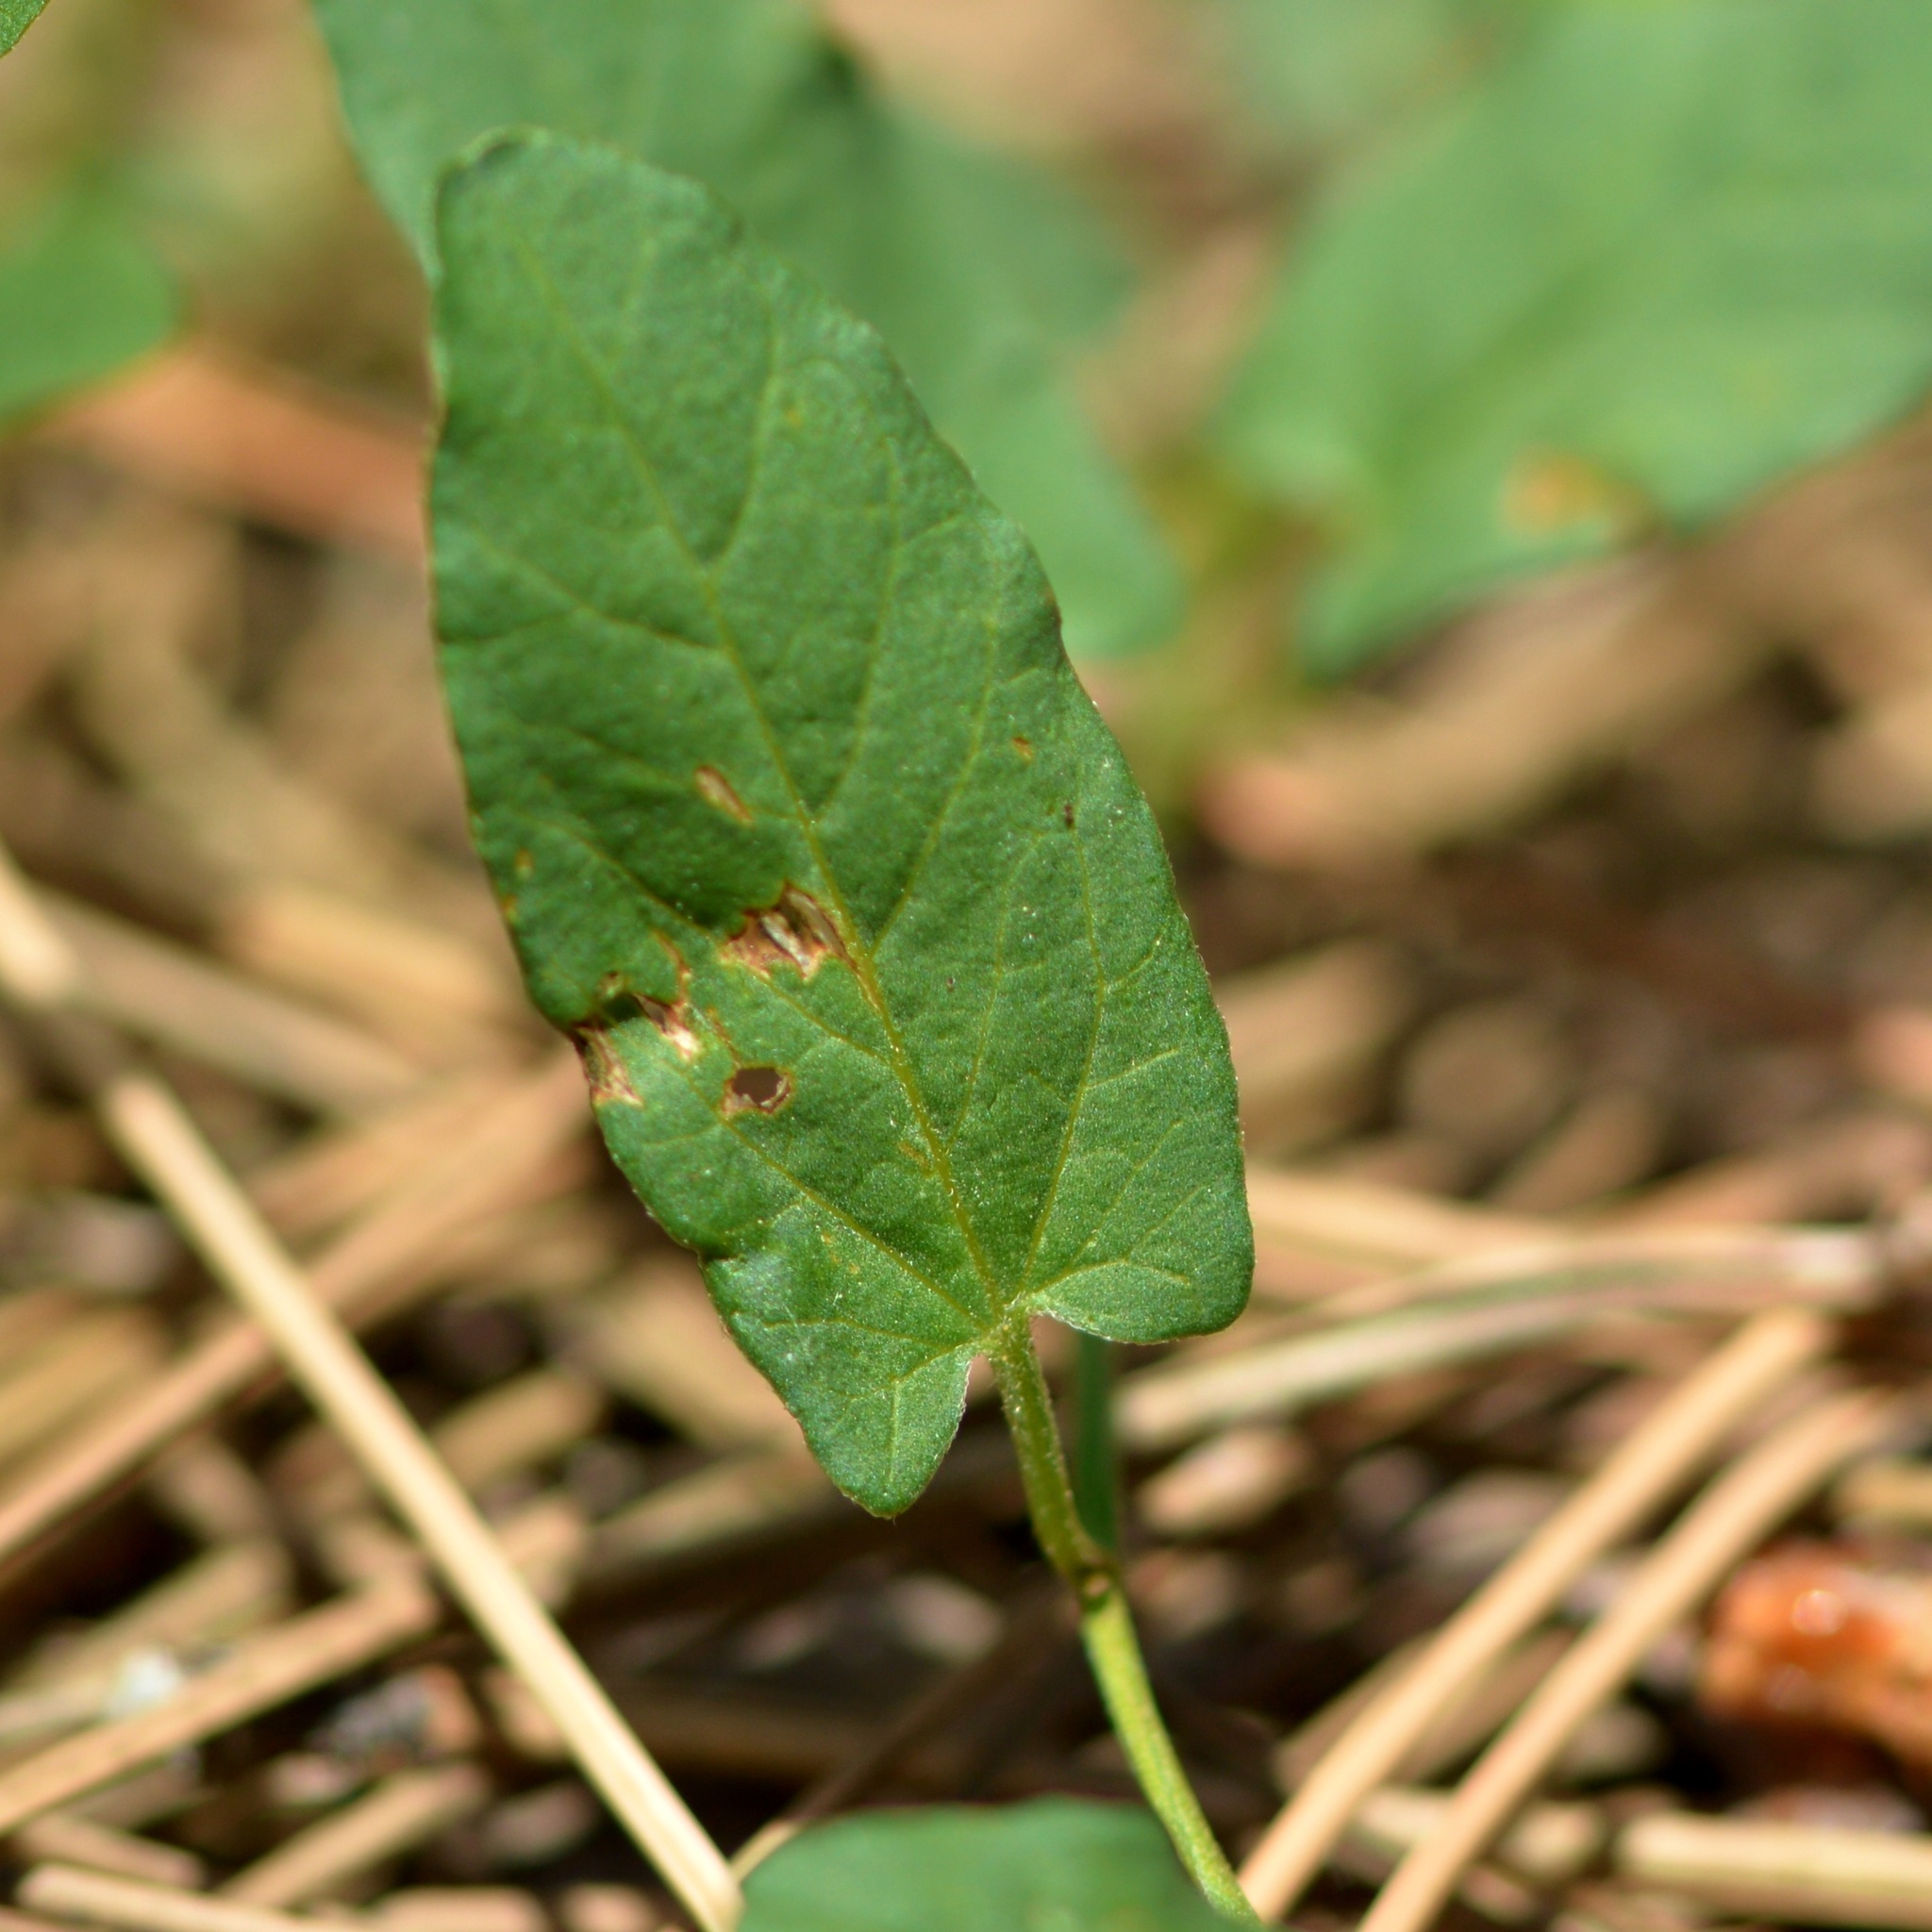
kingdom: Plantae
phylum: Tracheophyta
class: Magnoliopsida
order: Solanales
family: Convolvulaceae
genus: Convolvulus
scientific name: Convolvulus arvensis
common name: Field bindweed
